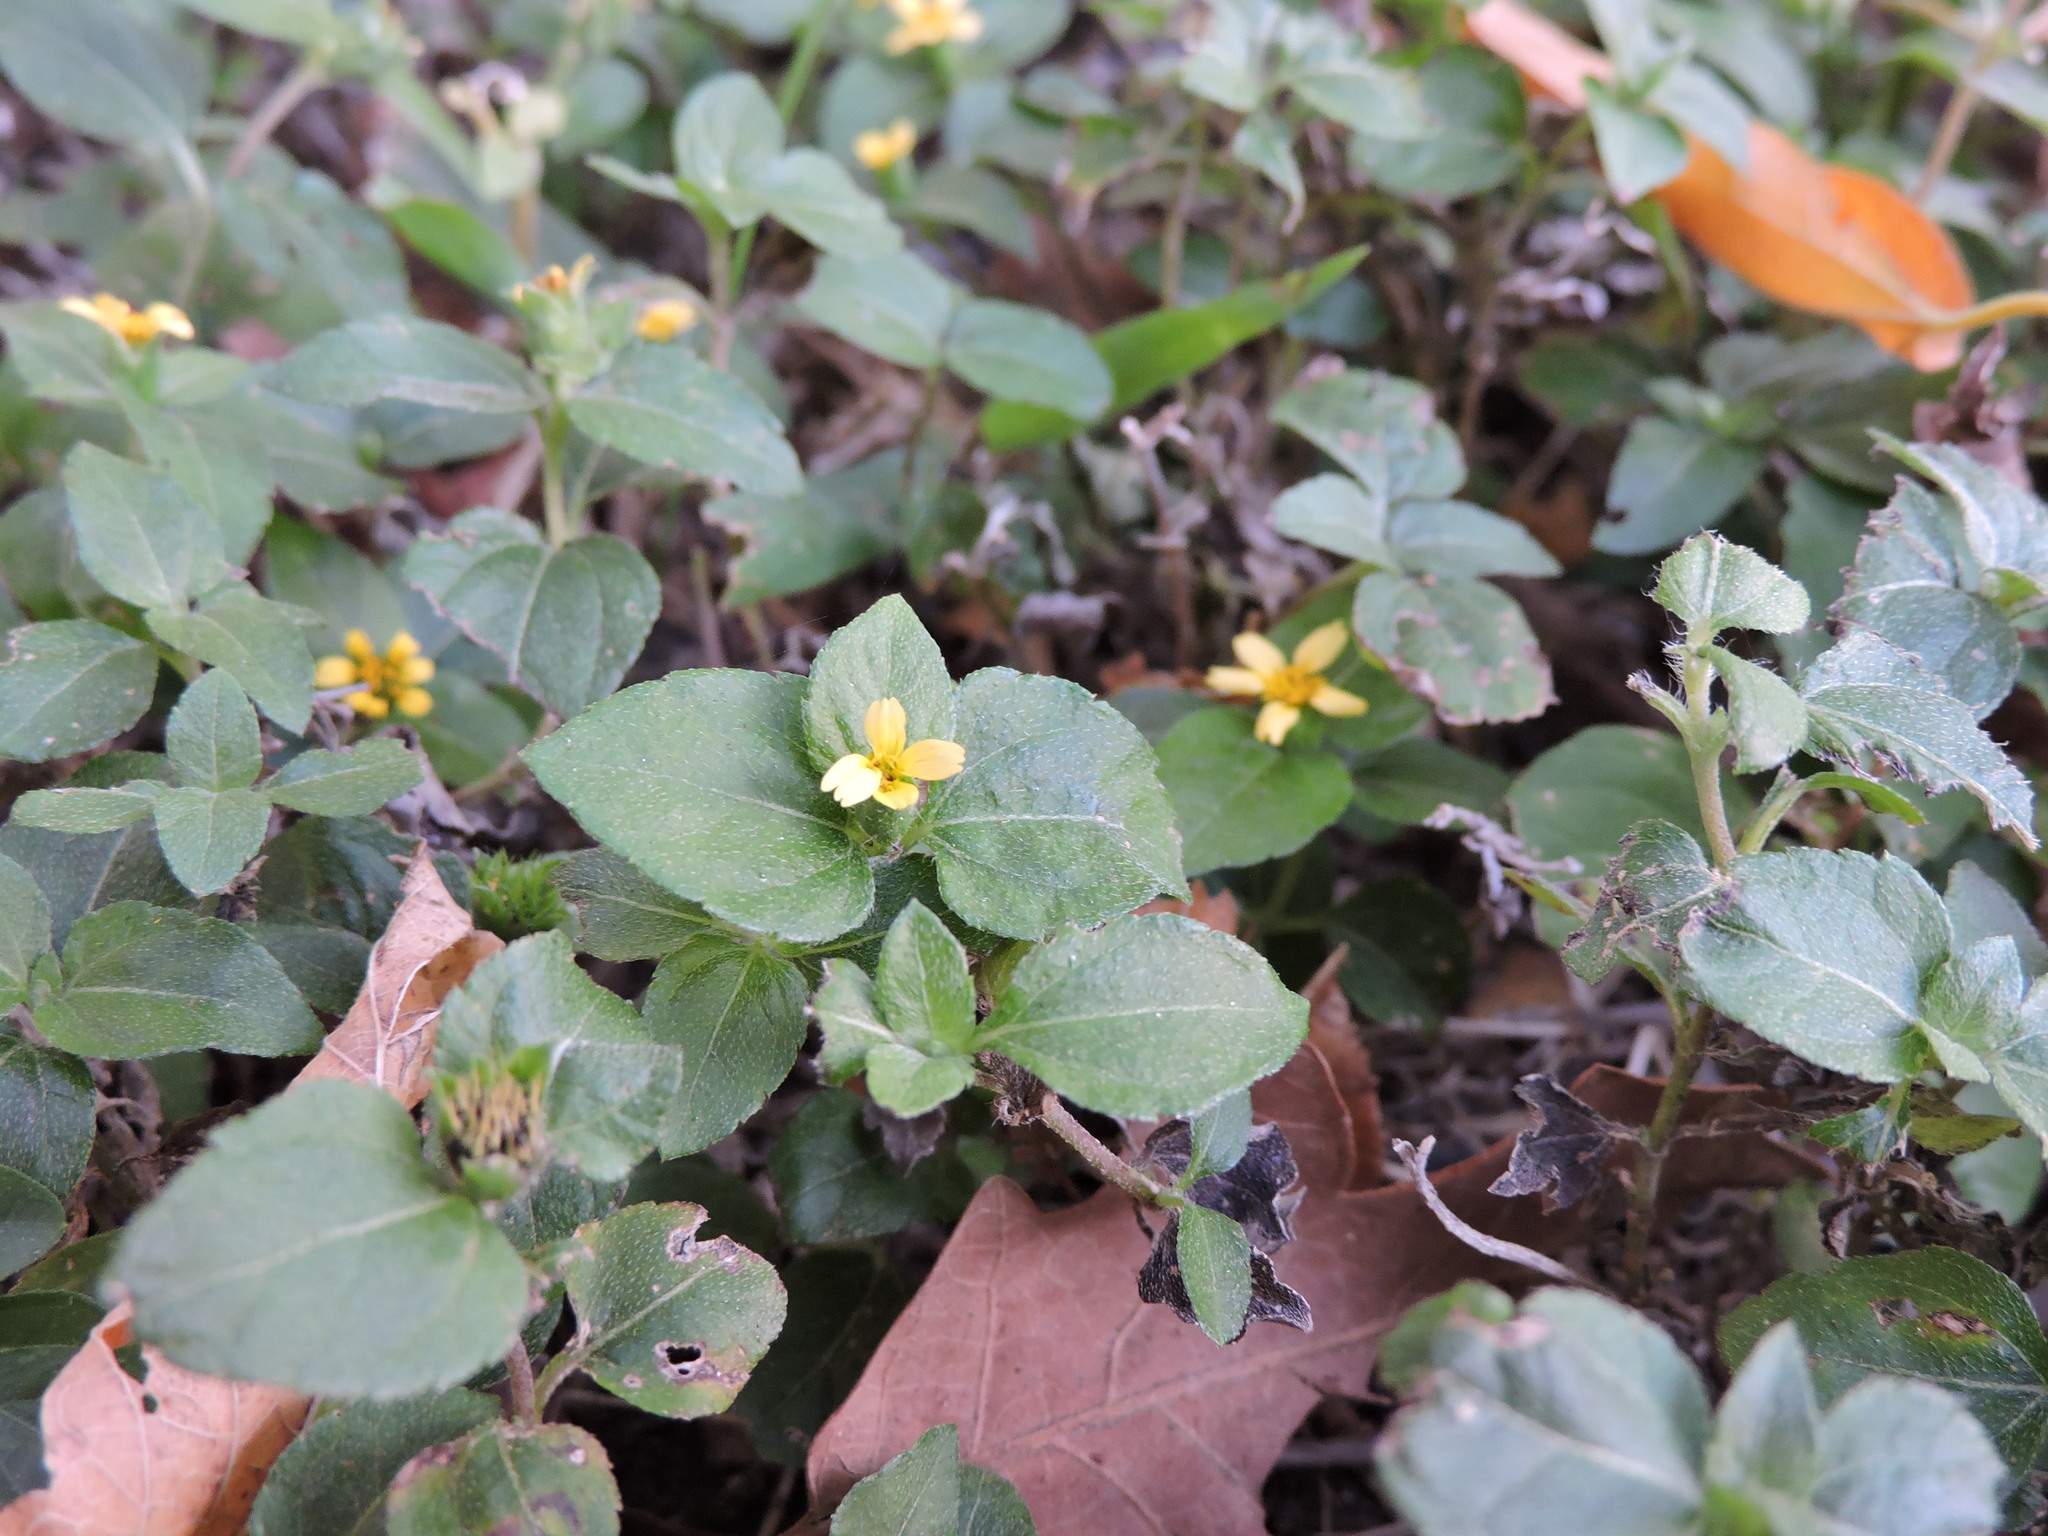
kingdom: Plantae
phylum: Tracheophyta
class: Magnoliopsida
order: Asterales
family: Asteraceae
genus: Calyptocarpus
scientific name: Calyptocarpus vialis
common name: Straggler daisy
